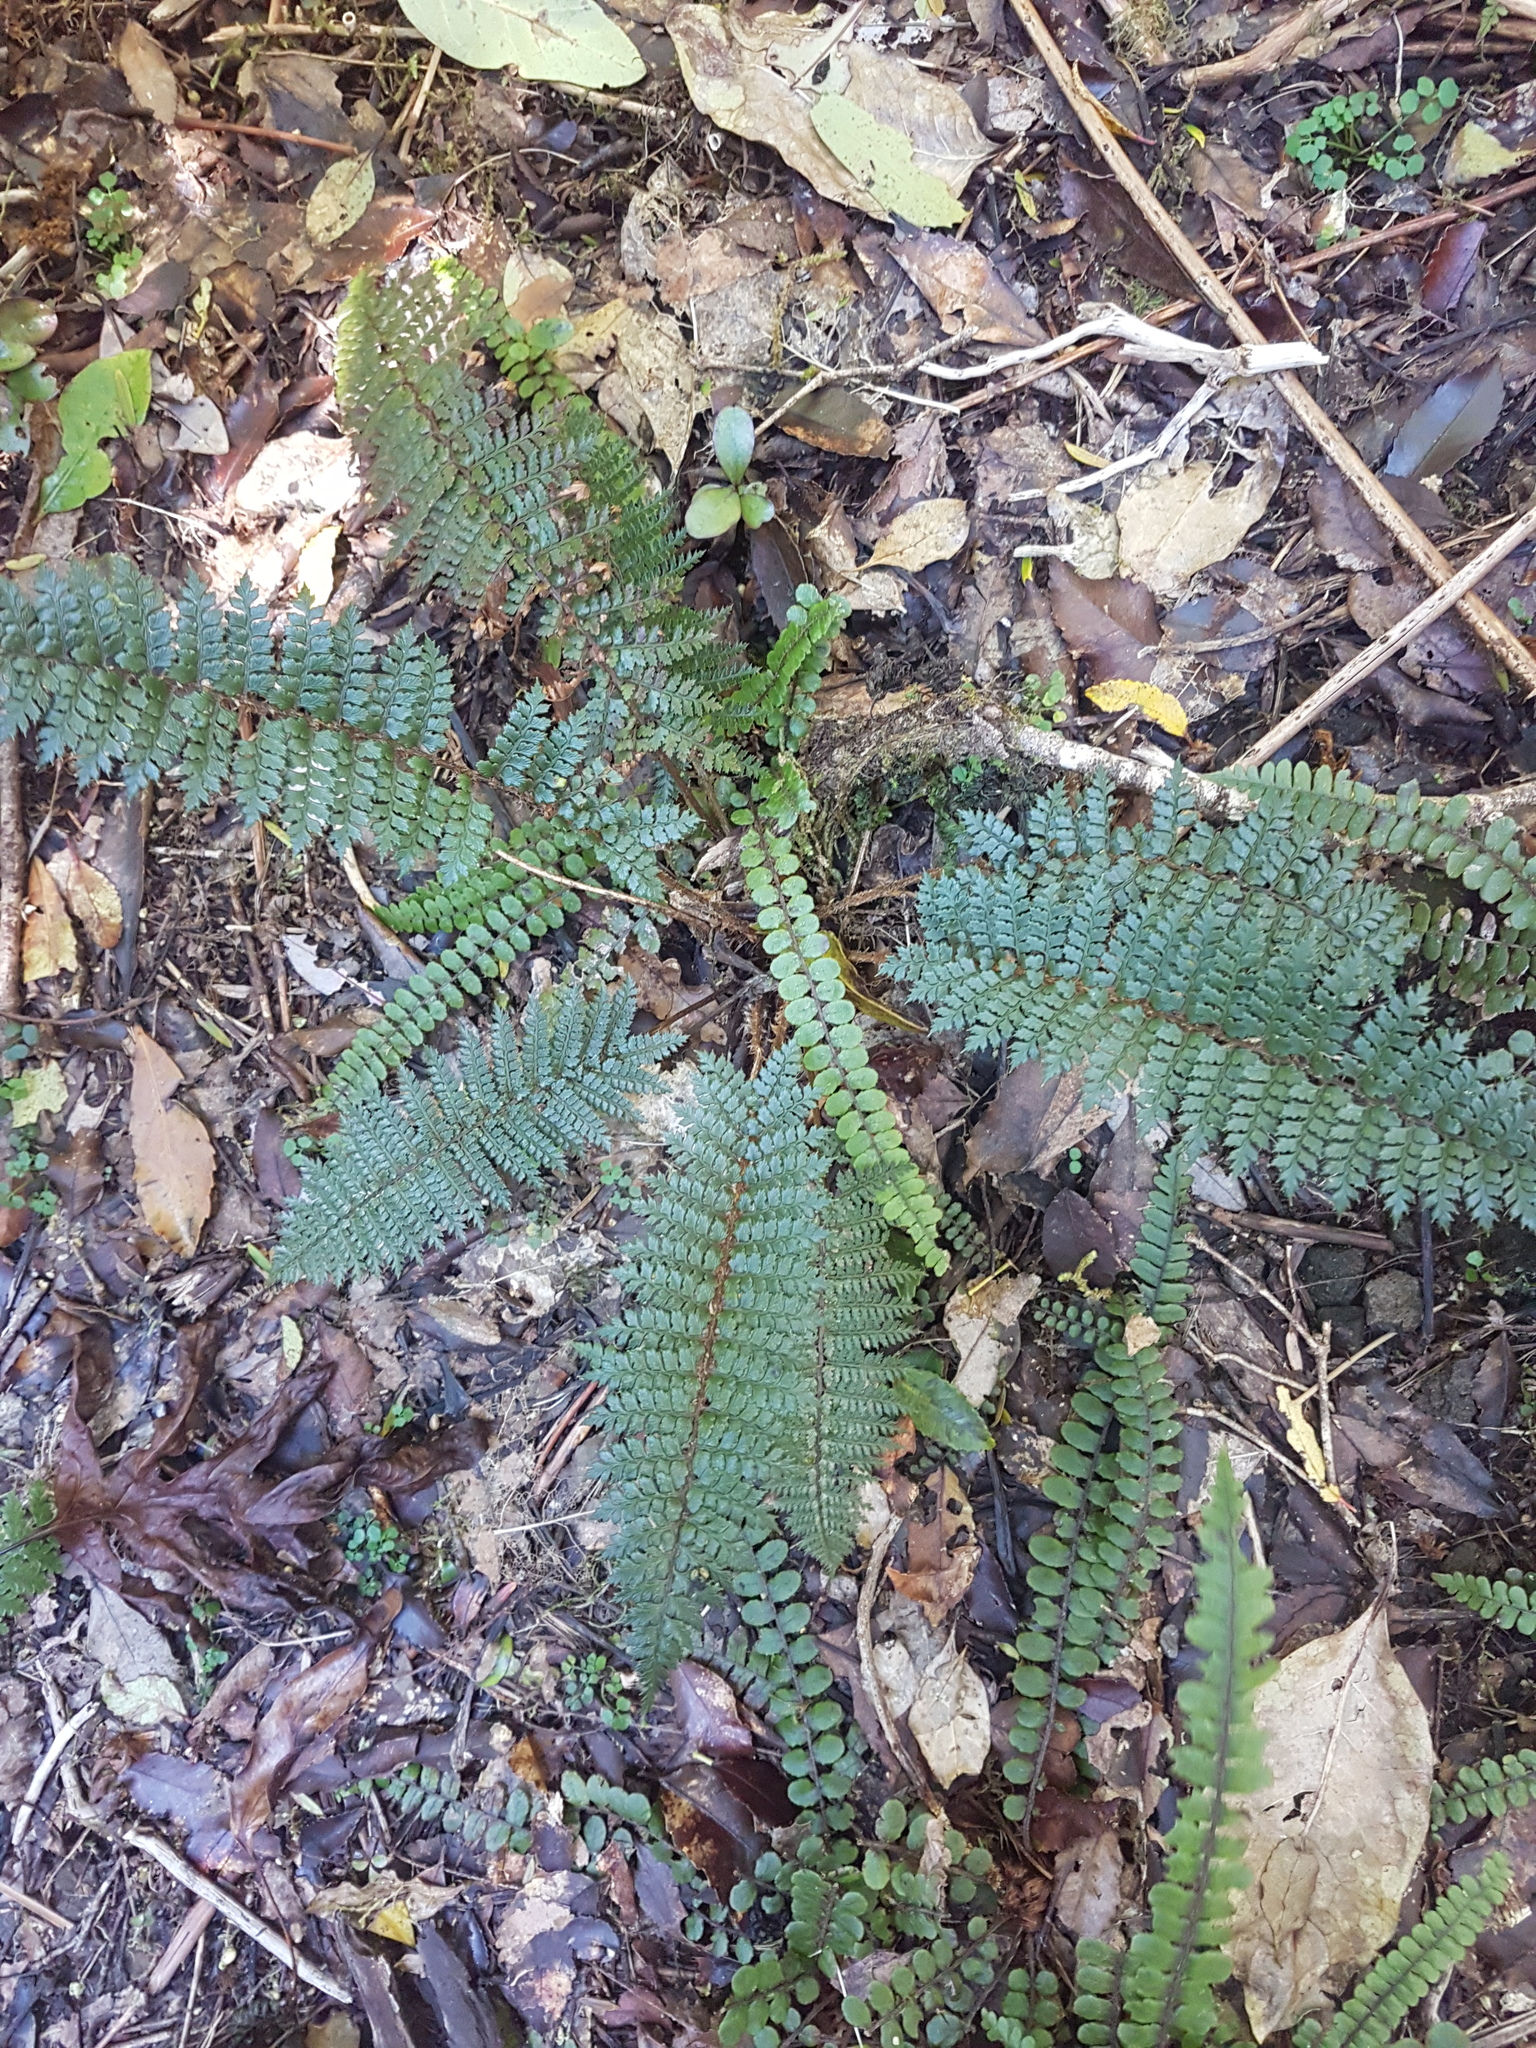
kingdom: Plantae
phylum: Tracheophyta
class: Polypodiopsida
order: Polypodiales
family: Dryopteridaceae
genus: Polystichum
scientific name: Polystichum vestitum
